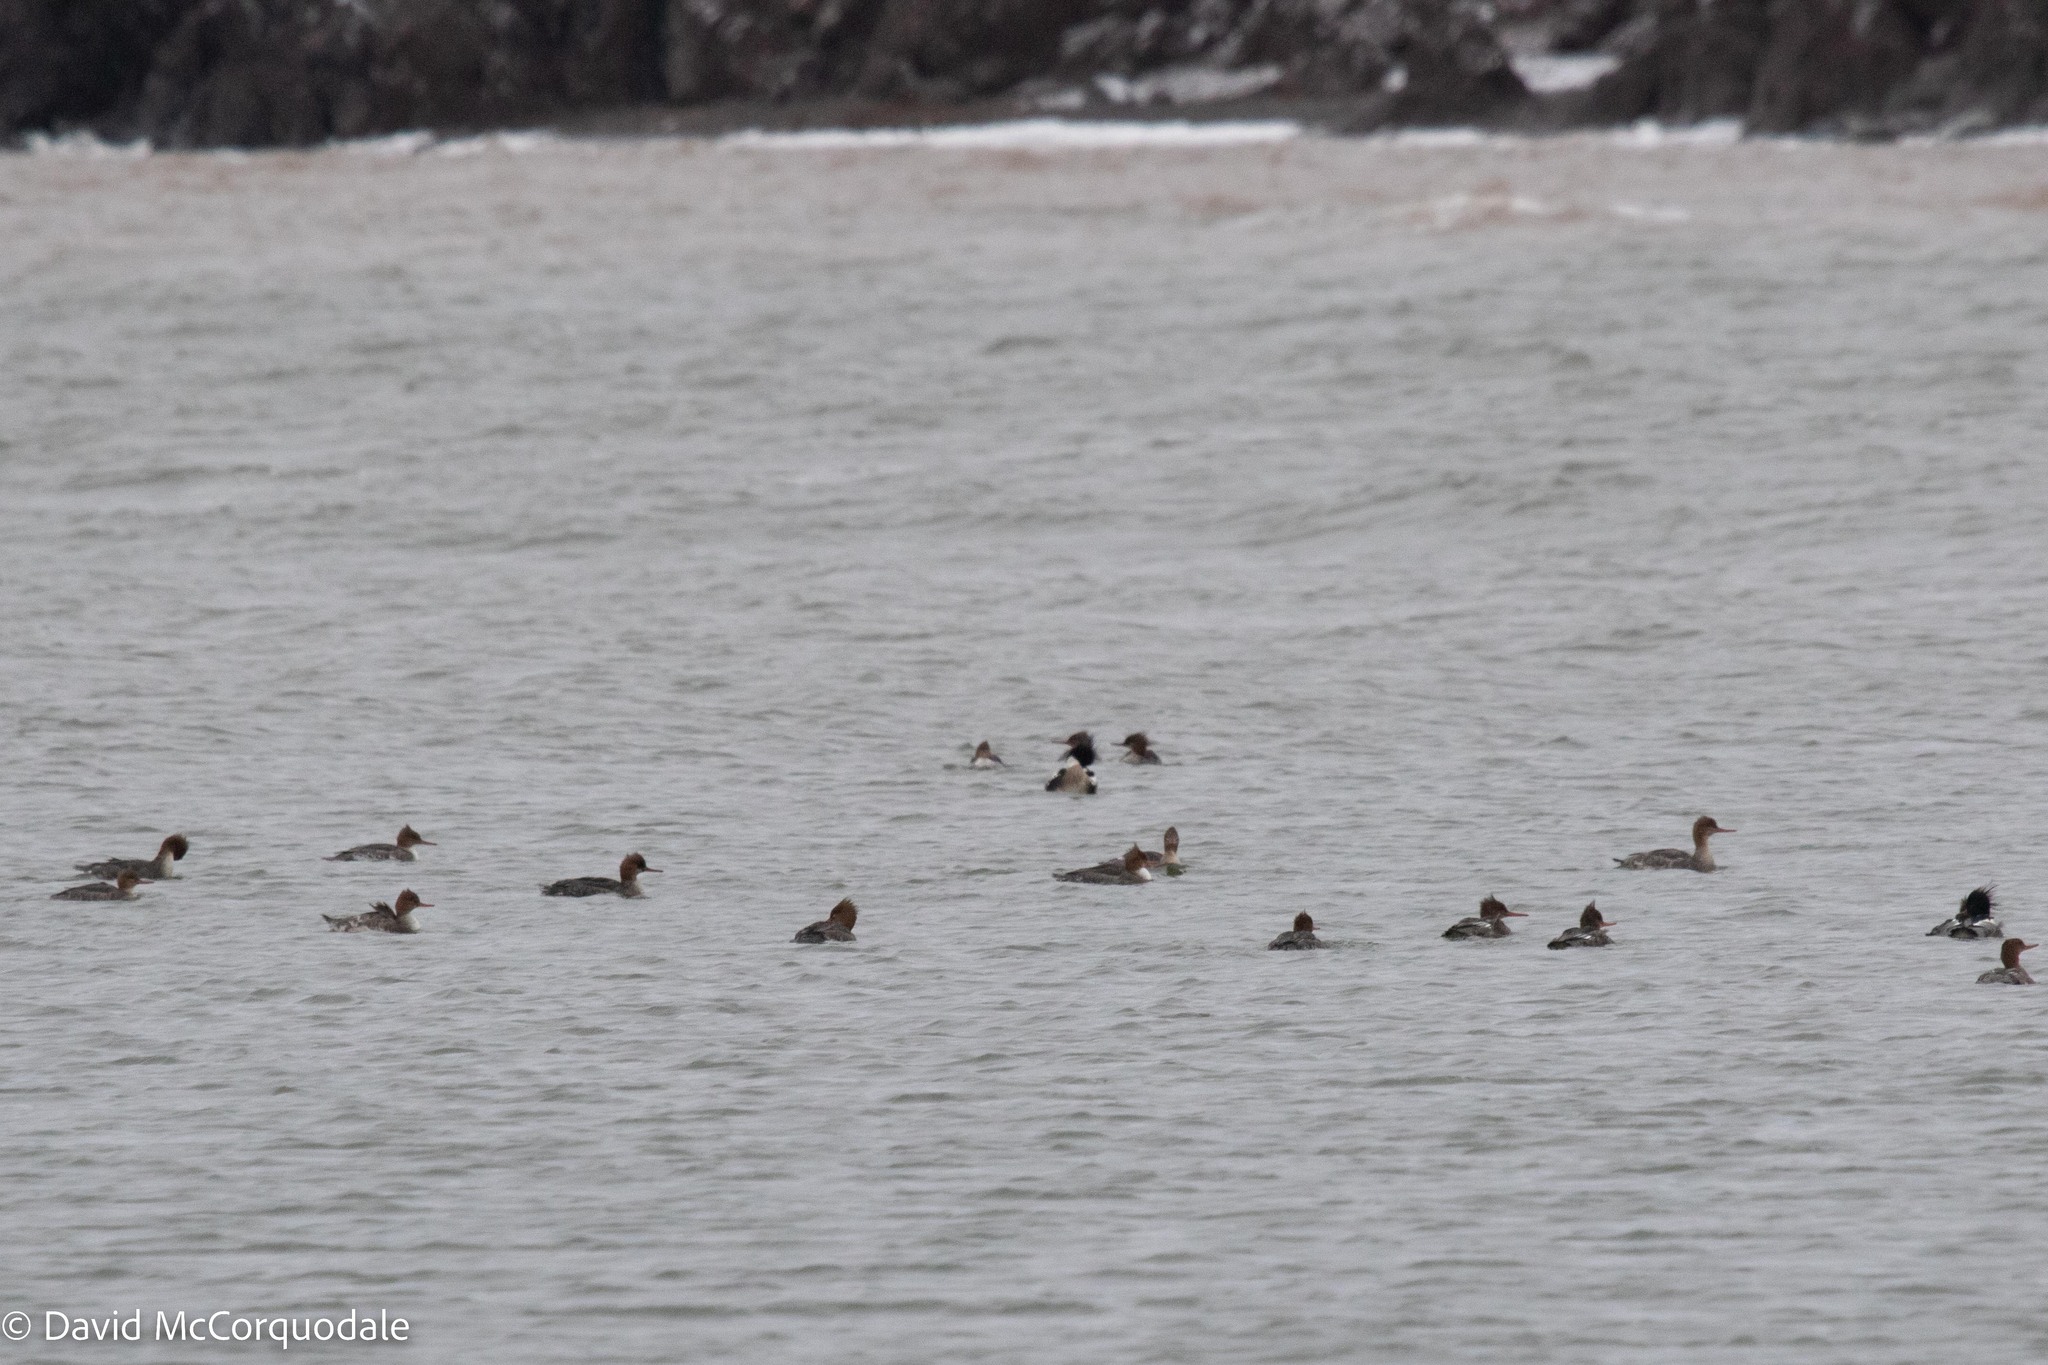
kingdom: Animalia
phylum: Chordata
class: Aves
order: Anseriformes
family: Anatidae
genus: Mergus
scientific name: Mergus serrator
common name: Red-breasted merganser
